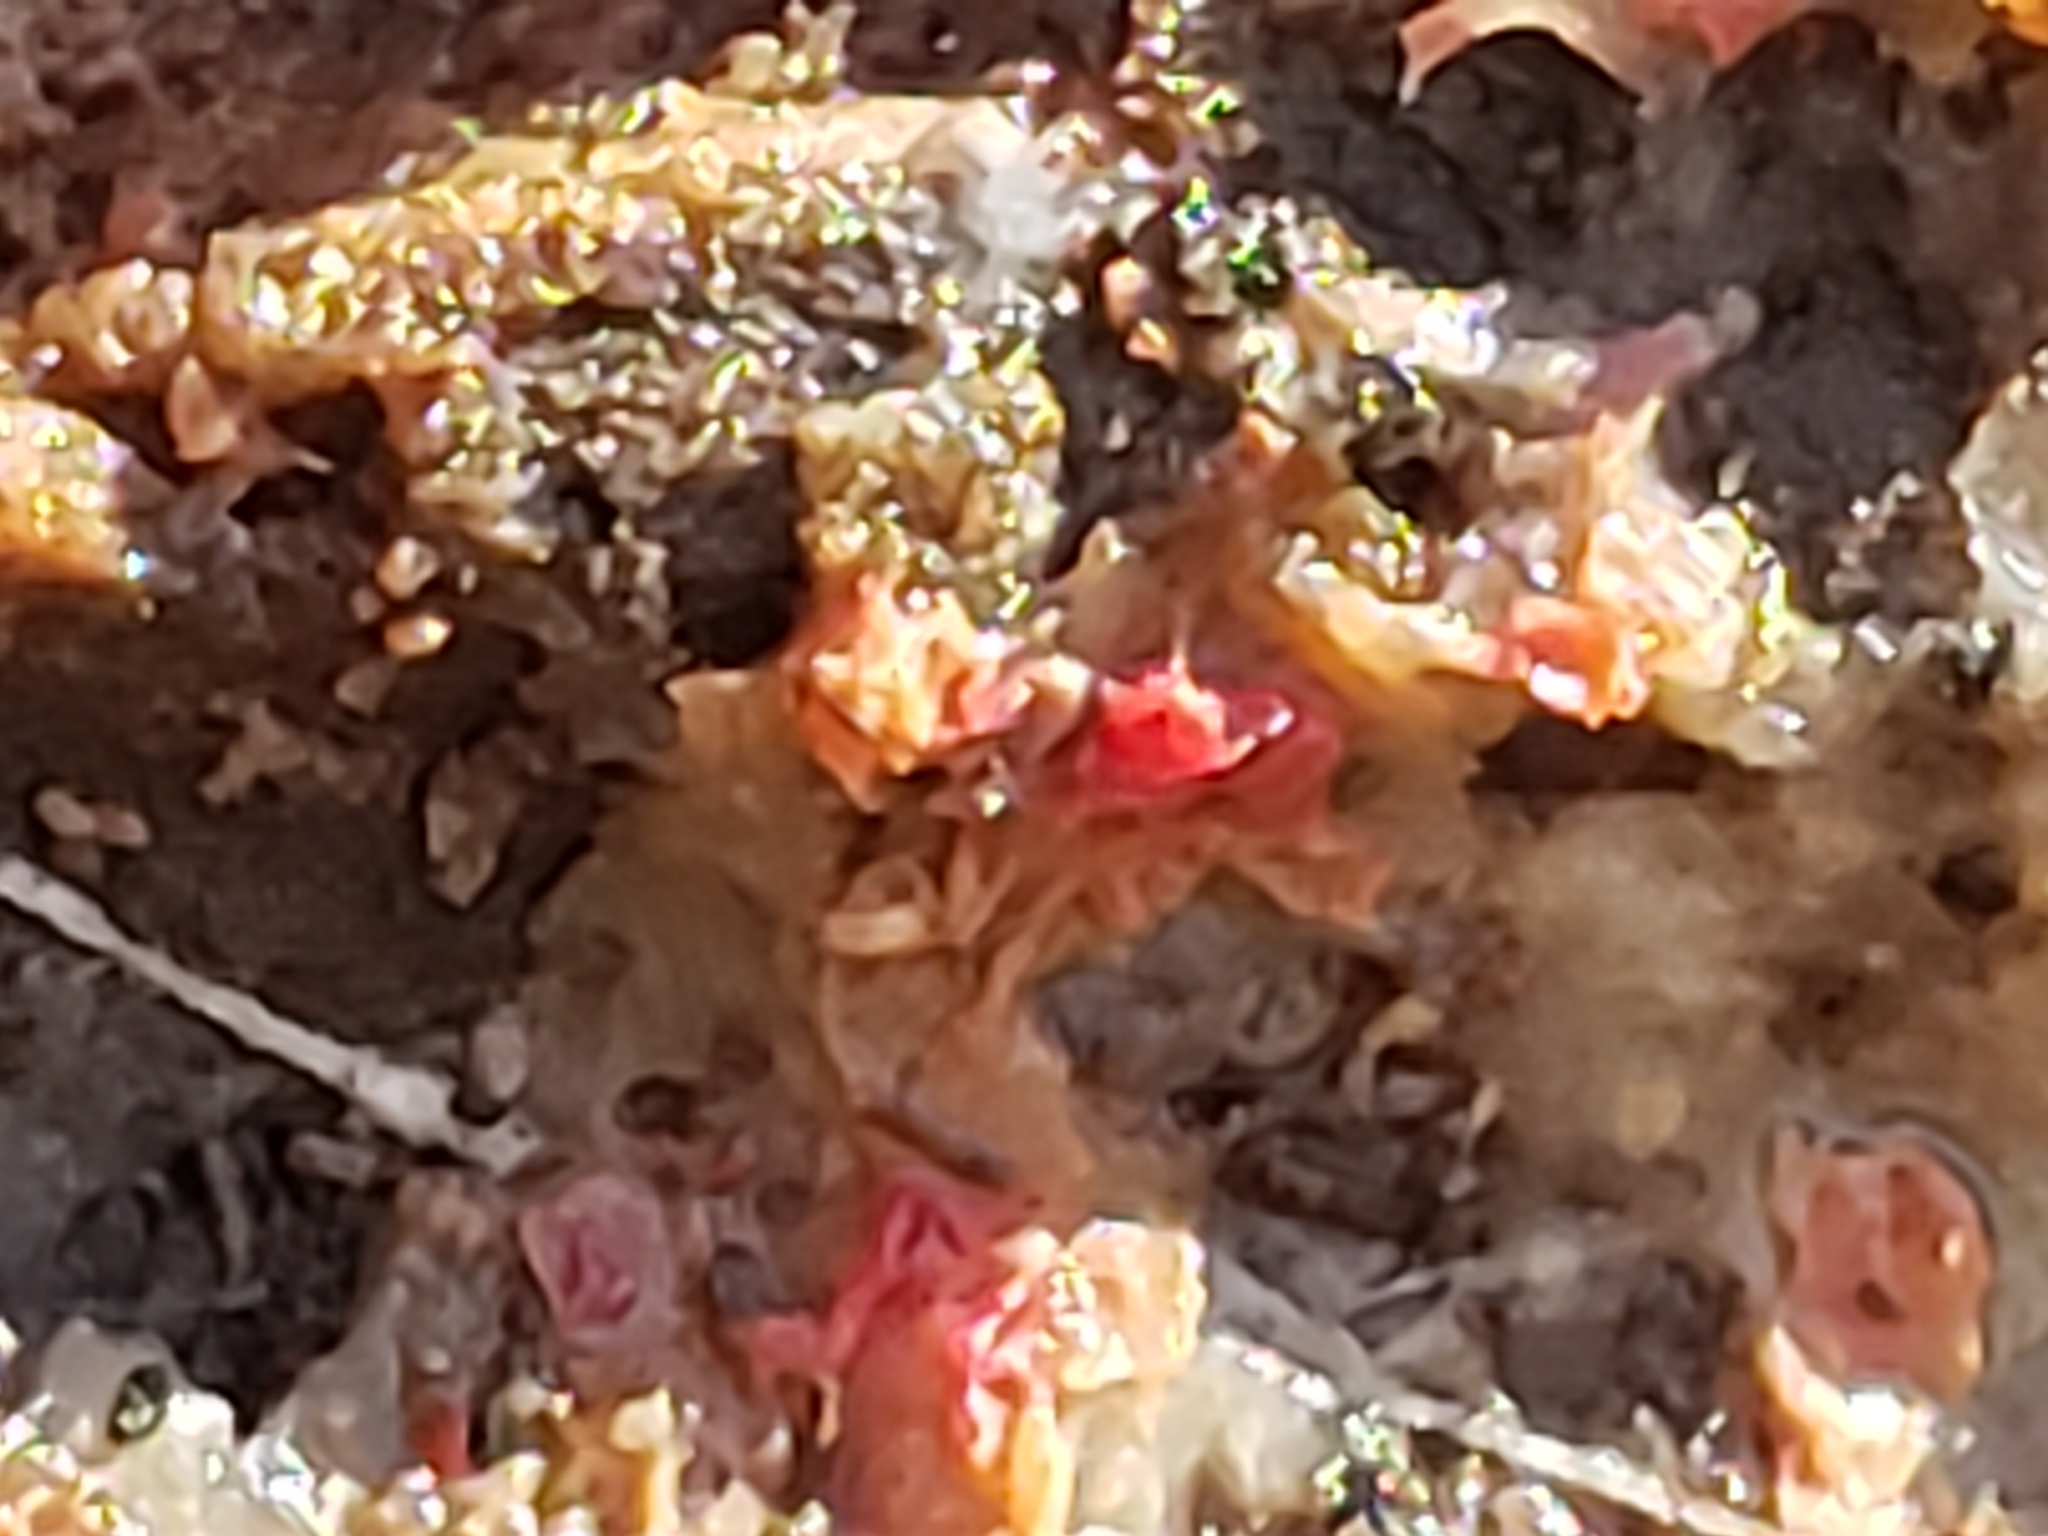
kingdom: Fungi
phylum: Basidiomycota
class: Agaricomycetes
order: Polyporales
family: Meruliaceae
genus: Phlebia
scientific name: Phlebia tremellosa
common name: Jelly rot
